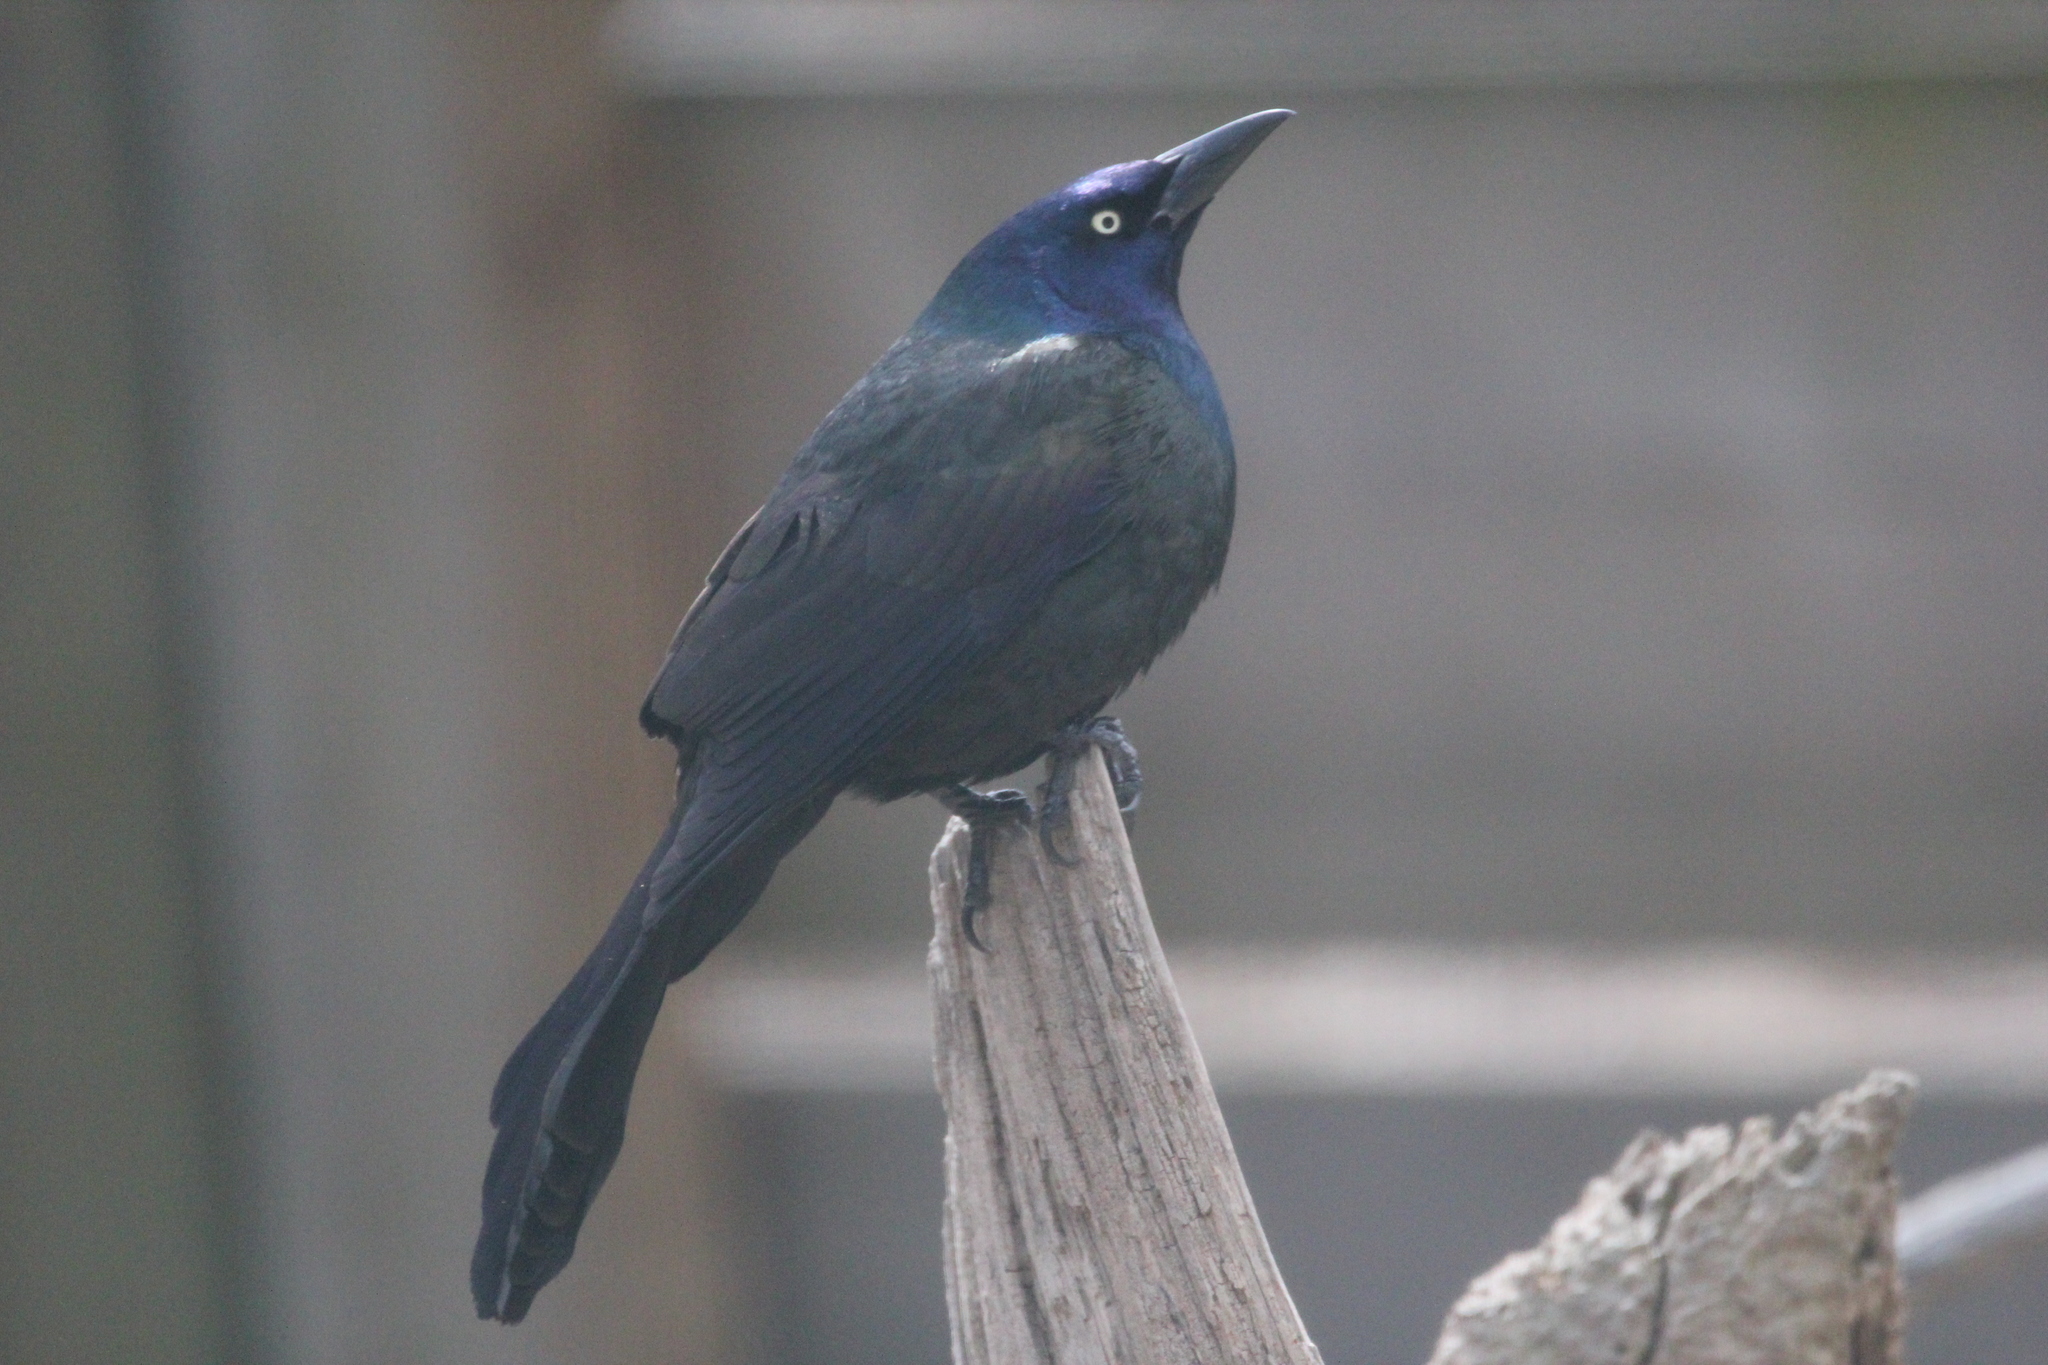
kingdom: Animalia
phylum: Chordata
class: Aves
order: Passeriformes
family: Icteridae
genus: Quiscalus
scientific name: Quiscalus quiscula
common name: Common grackle
